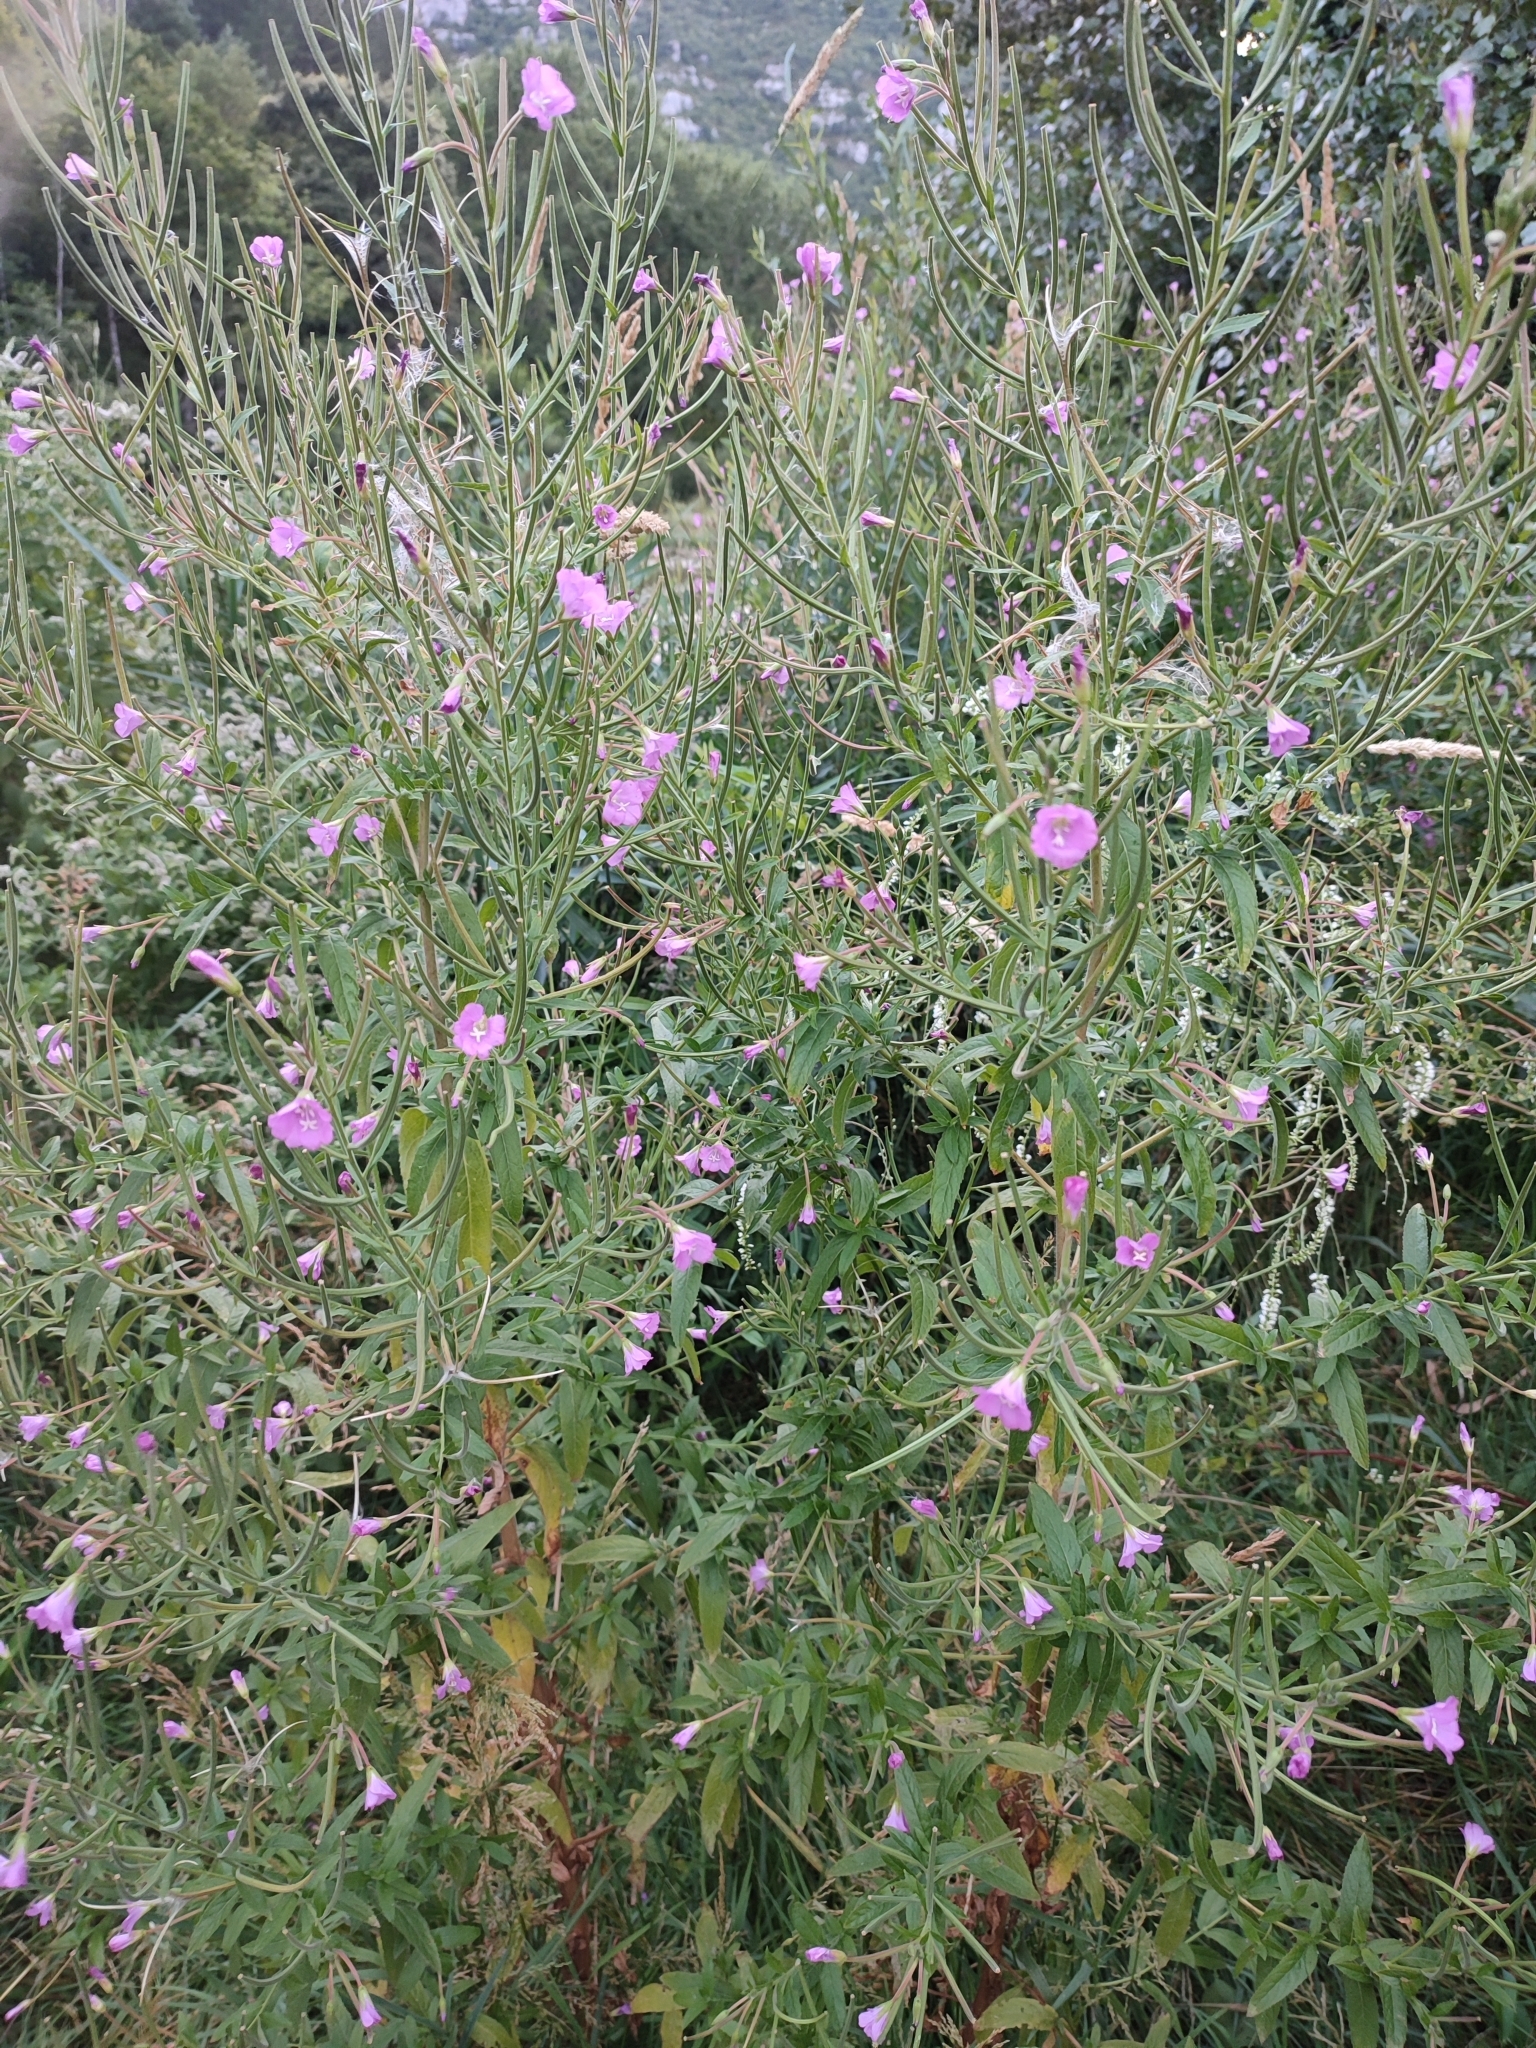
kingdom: Plantae
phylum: Tracheophyta
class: Magnoliopsida
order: Myrtales
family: Onagraceae
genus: Epilobium
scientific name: Epilobium hirsutum
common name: Great willowherb
